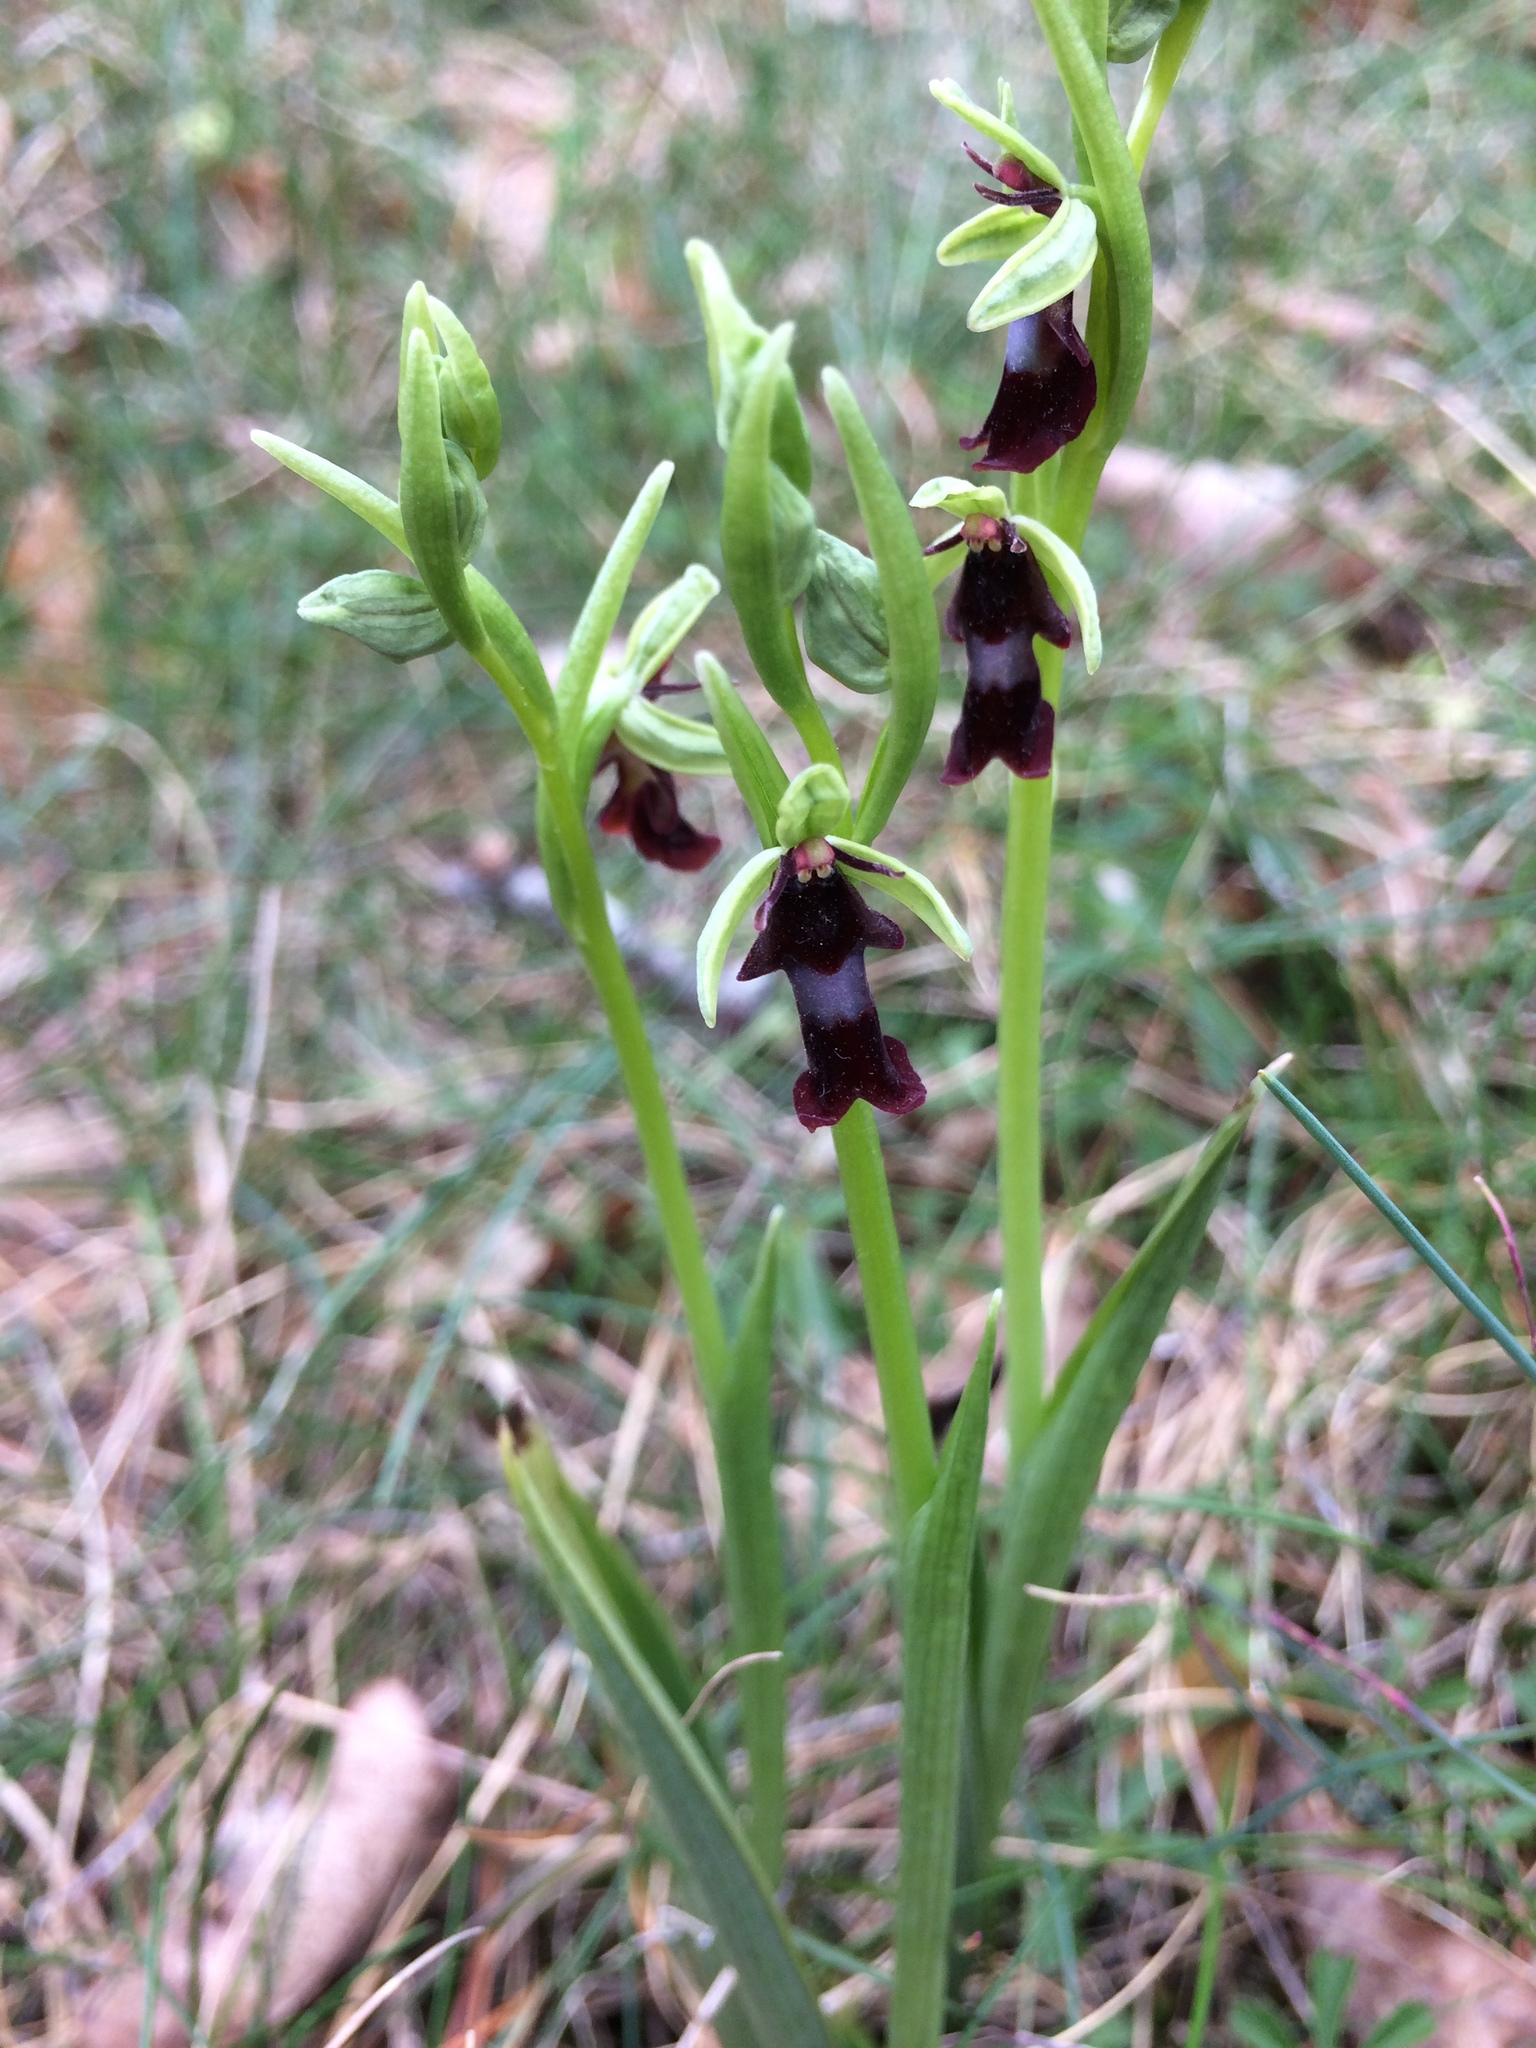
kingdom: Plantae
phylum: Tracheophyta
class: Liliopsida
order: Asparagales
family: Orchidaceae
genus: Ophrys
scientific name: Ophrys insectifera
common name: Fly orchid
